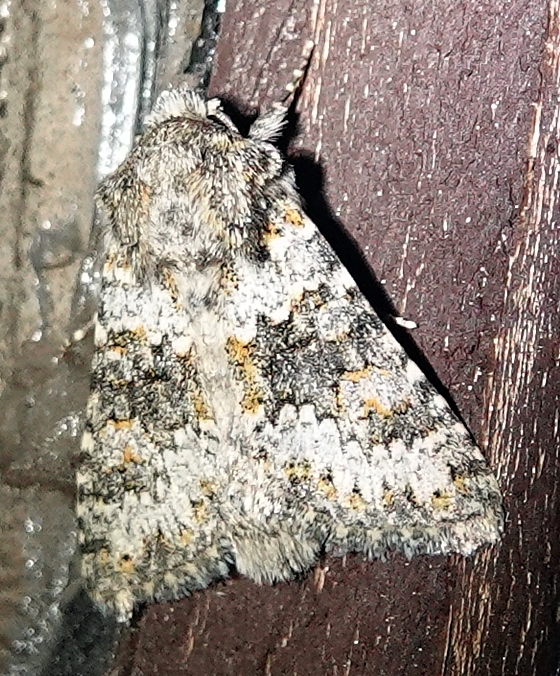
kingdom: Animalia
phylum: Arthropoda
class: Insecta
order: Lepidoptera
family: Noctuidae
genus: Hecatera
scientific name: Hecatera dysodea
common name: Small ranunculus
